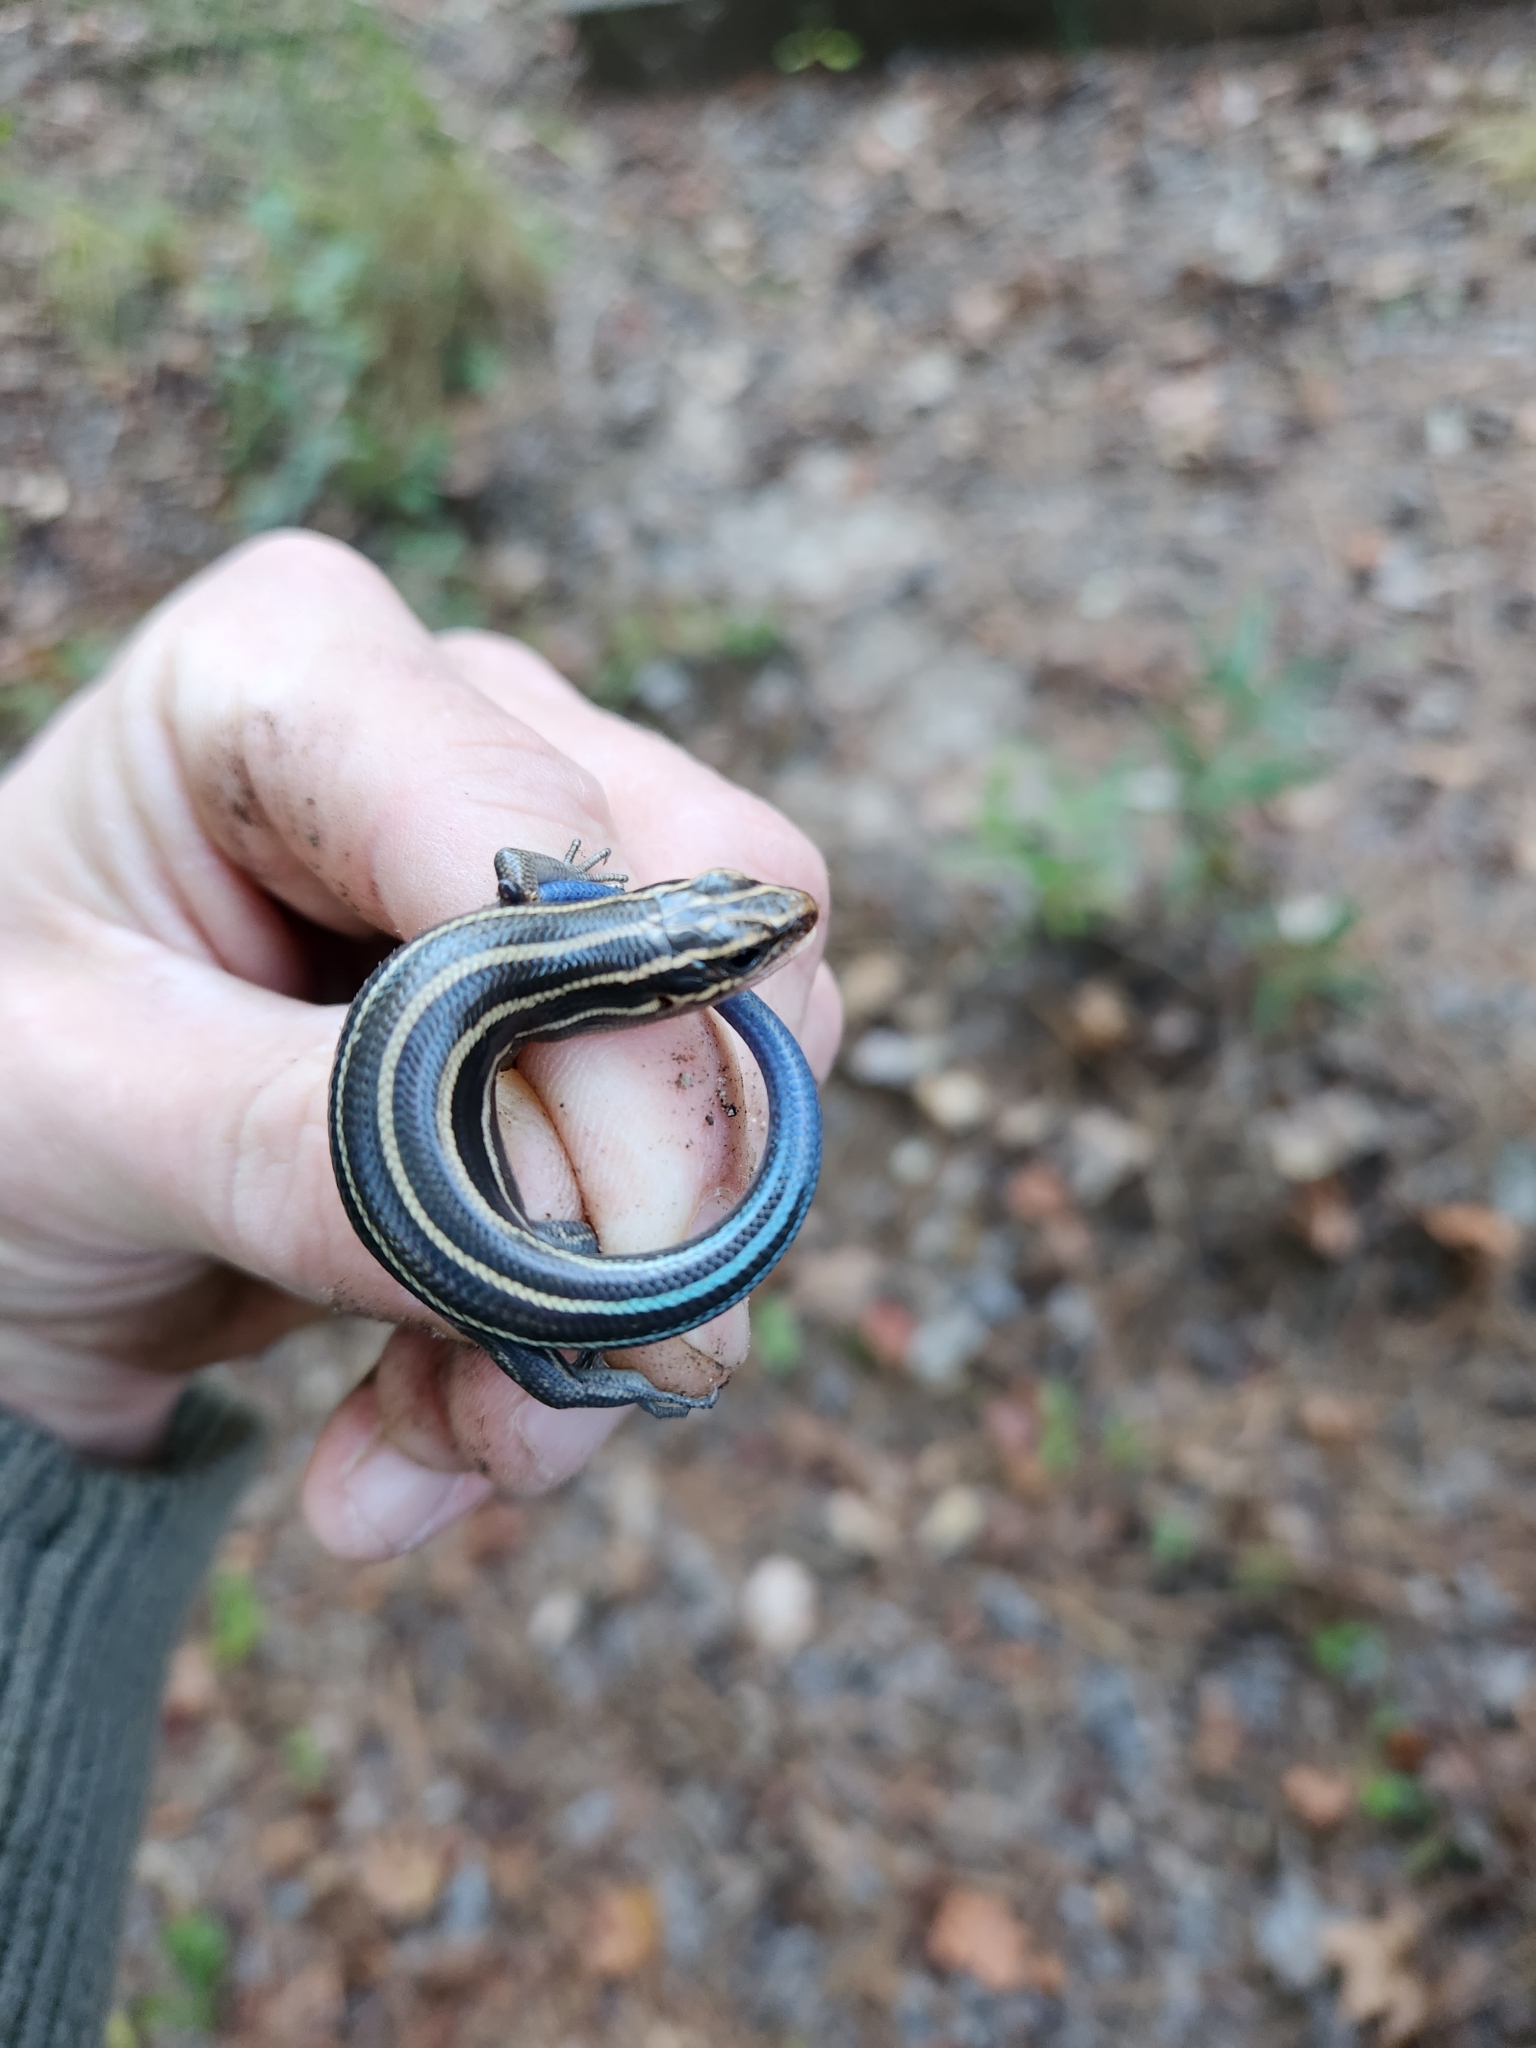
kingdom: Animalia
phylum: Chordata
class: Squamata
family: Scincidae
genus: Plestiodon
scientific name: Plestiodon fasciatus
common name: Five-lined skink
